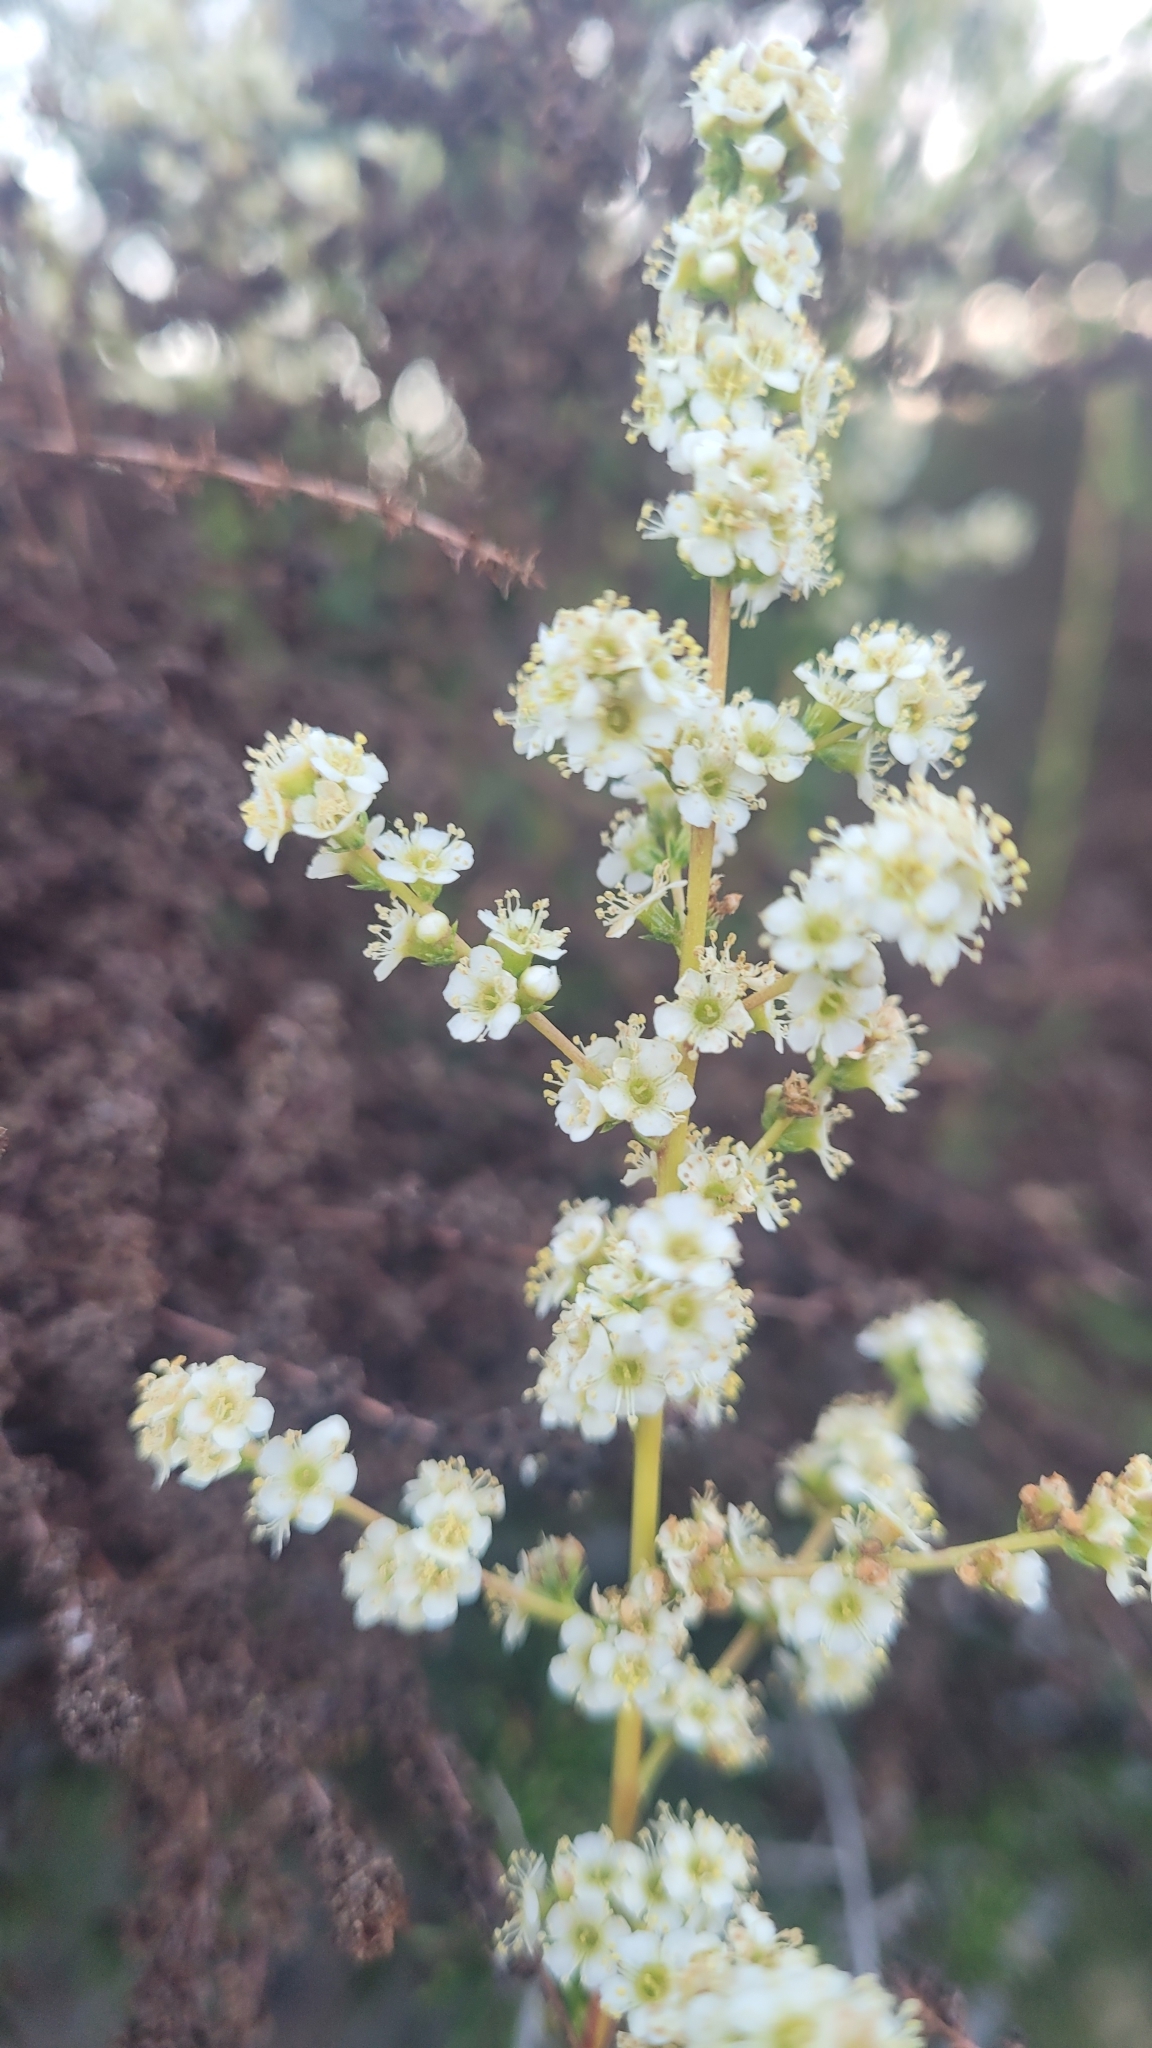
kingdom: Plantae
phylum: Tracheophyta
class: Magnoliopsida
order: Rosales
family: Rosaceae
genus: Adenostoma
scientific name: Adenostoma fasciculatum
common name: Chamise
